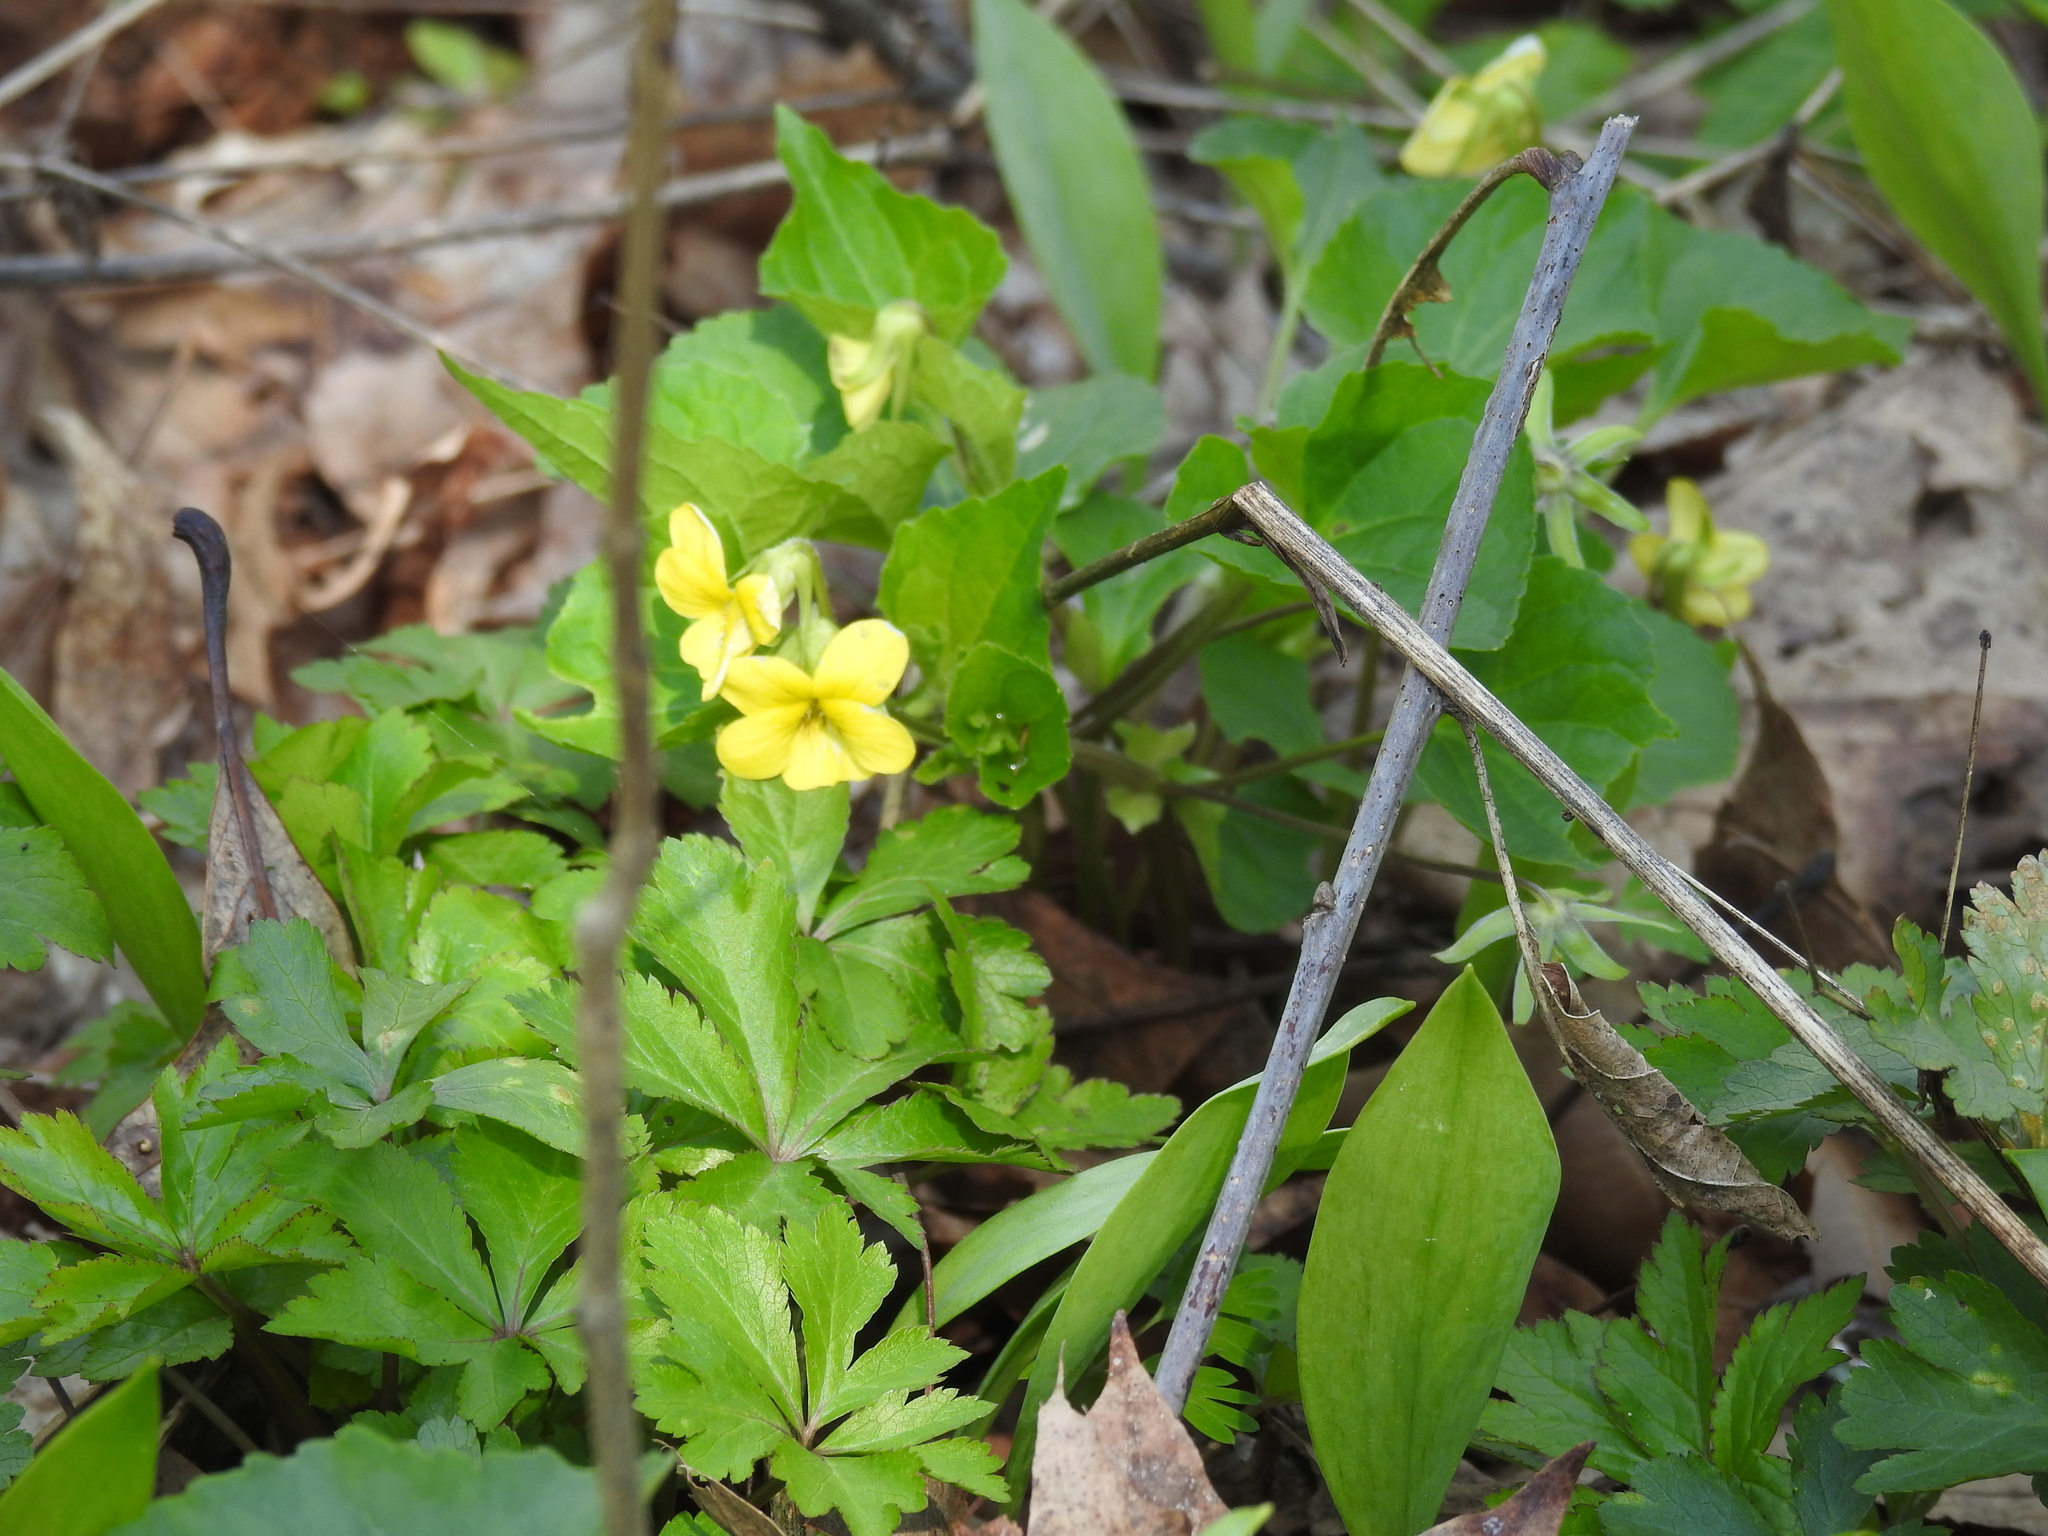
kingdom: Plantae
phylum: Tracheophyta
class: Magnoliopsida
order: Malpighiales
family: Violaceae
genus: Viola
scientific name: Viola eriocarpa
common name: Smooth yellow violet
